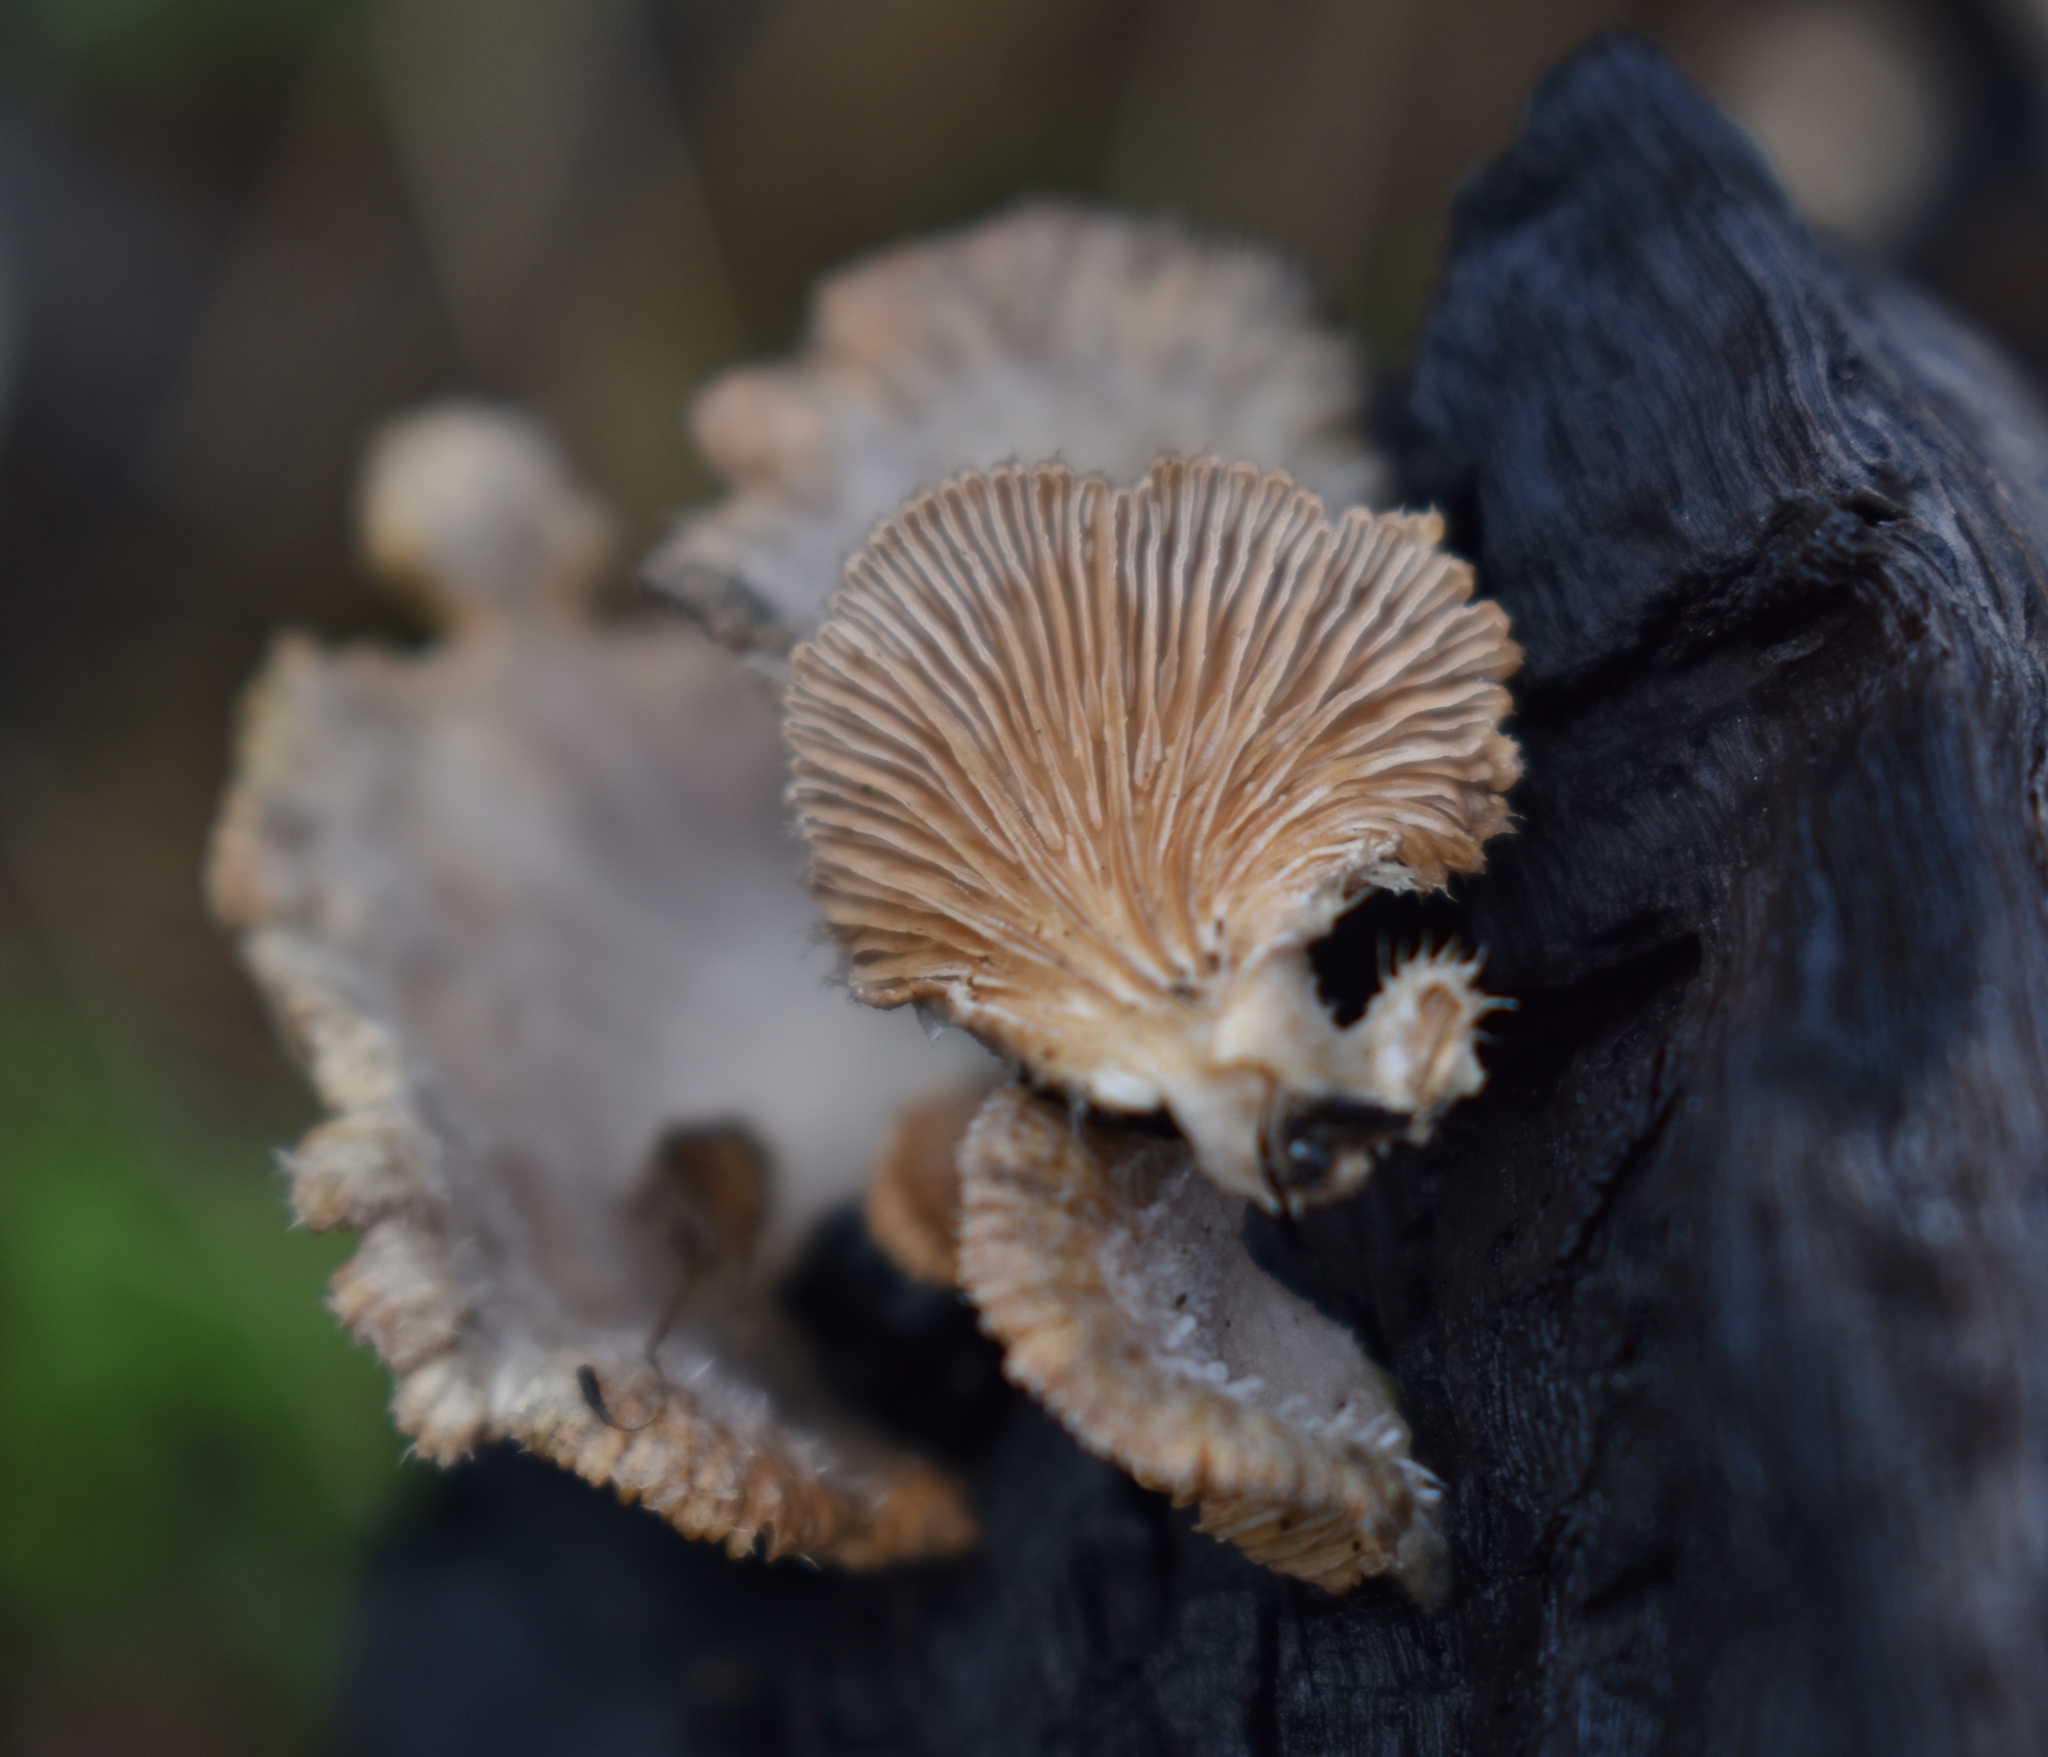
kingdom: Fungi
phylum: Basidiomycota
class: Agaricomycetes
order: Agaricales
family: Schizophyllaceae
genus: Schizophyllum
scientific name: Schizophyllum commune
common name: Common porecrust
